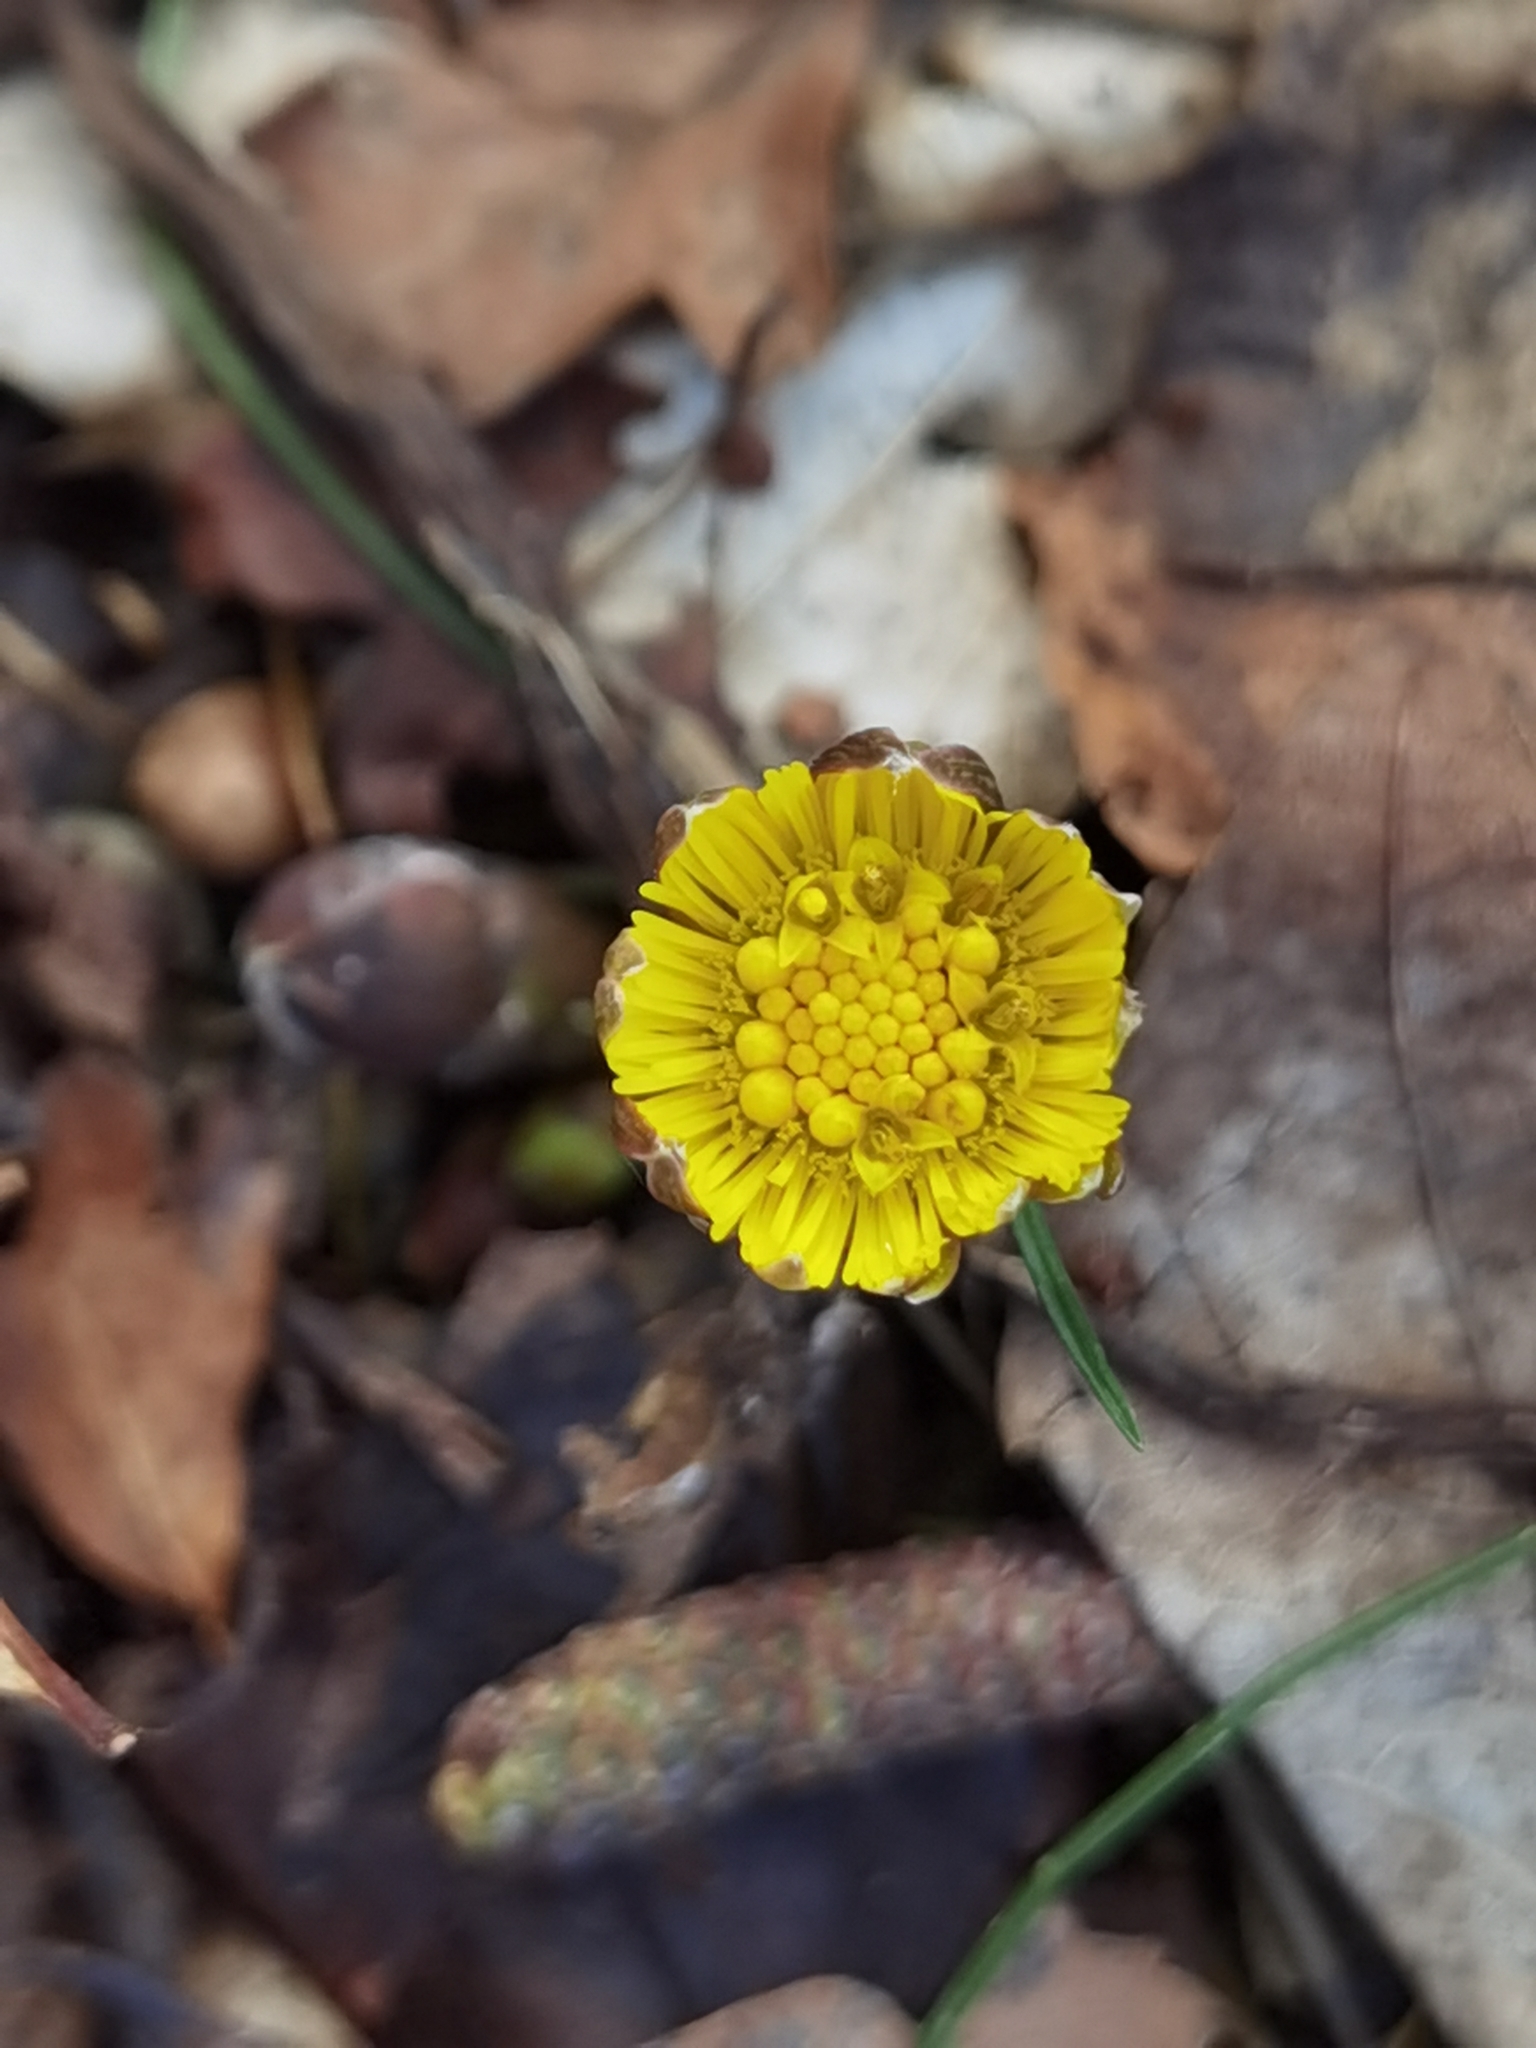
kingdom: Plantae
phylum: Tracheophyta
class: Magnoliopsida
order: Asterales
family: Asteraceae
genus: Tussilago
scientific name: Tussilago farfara
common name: Coltsfoot
